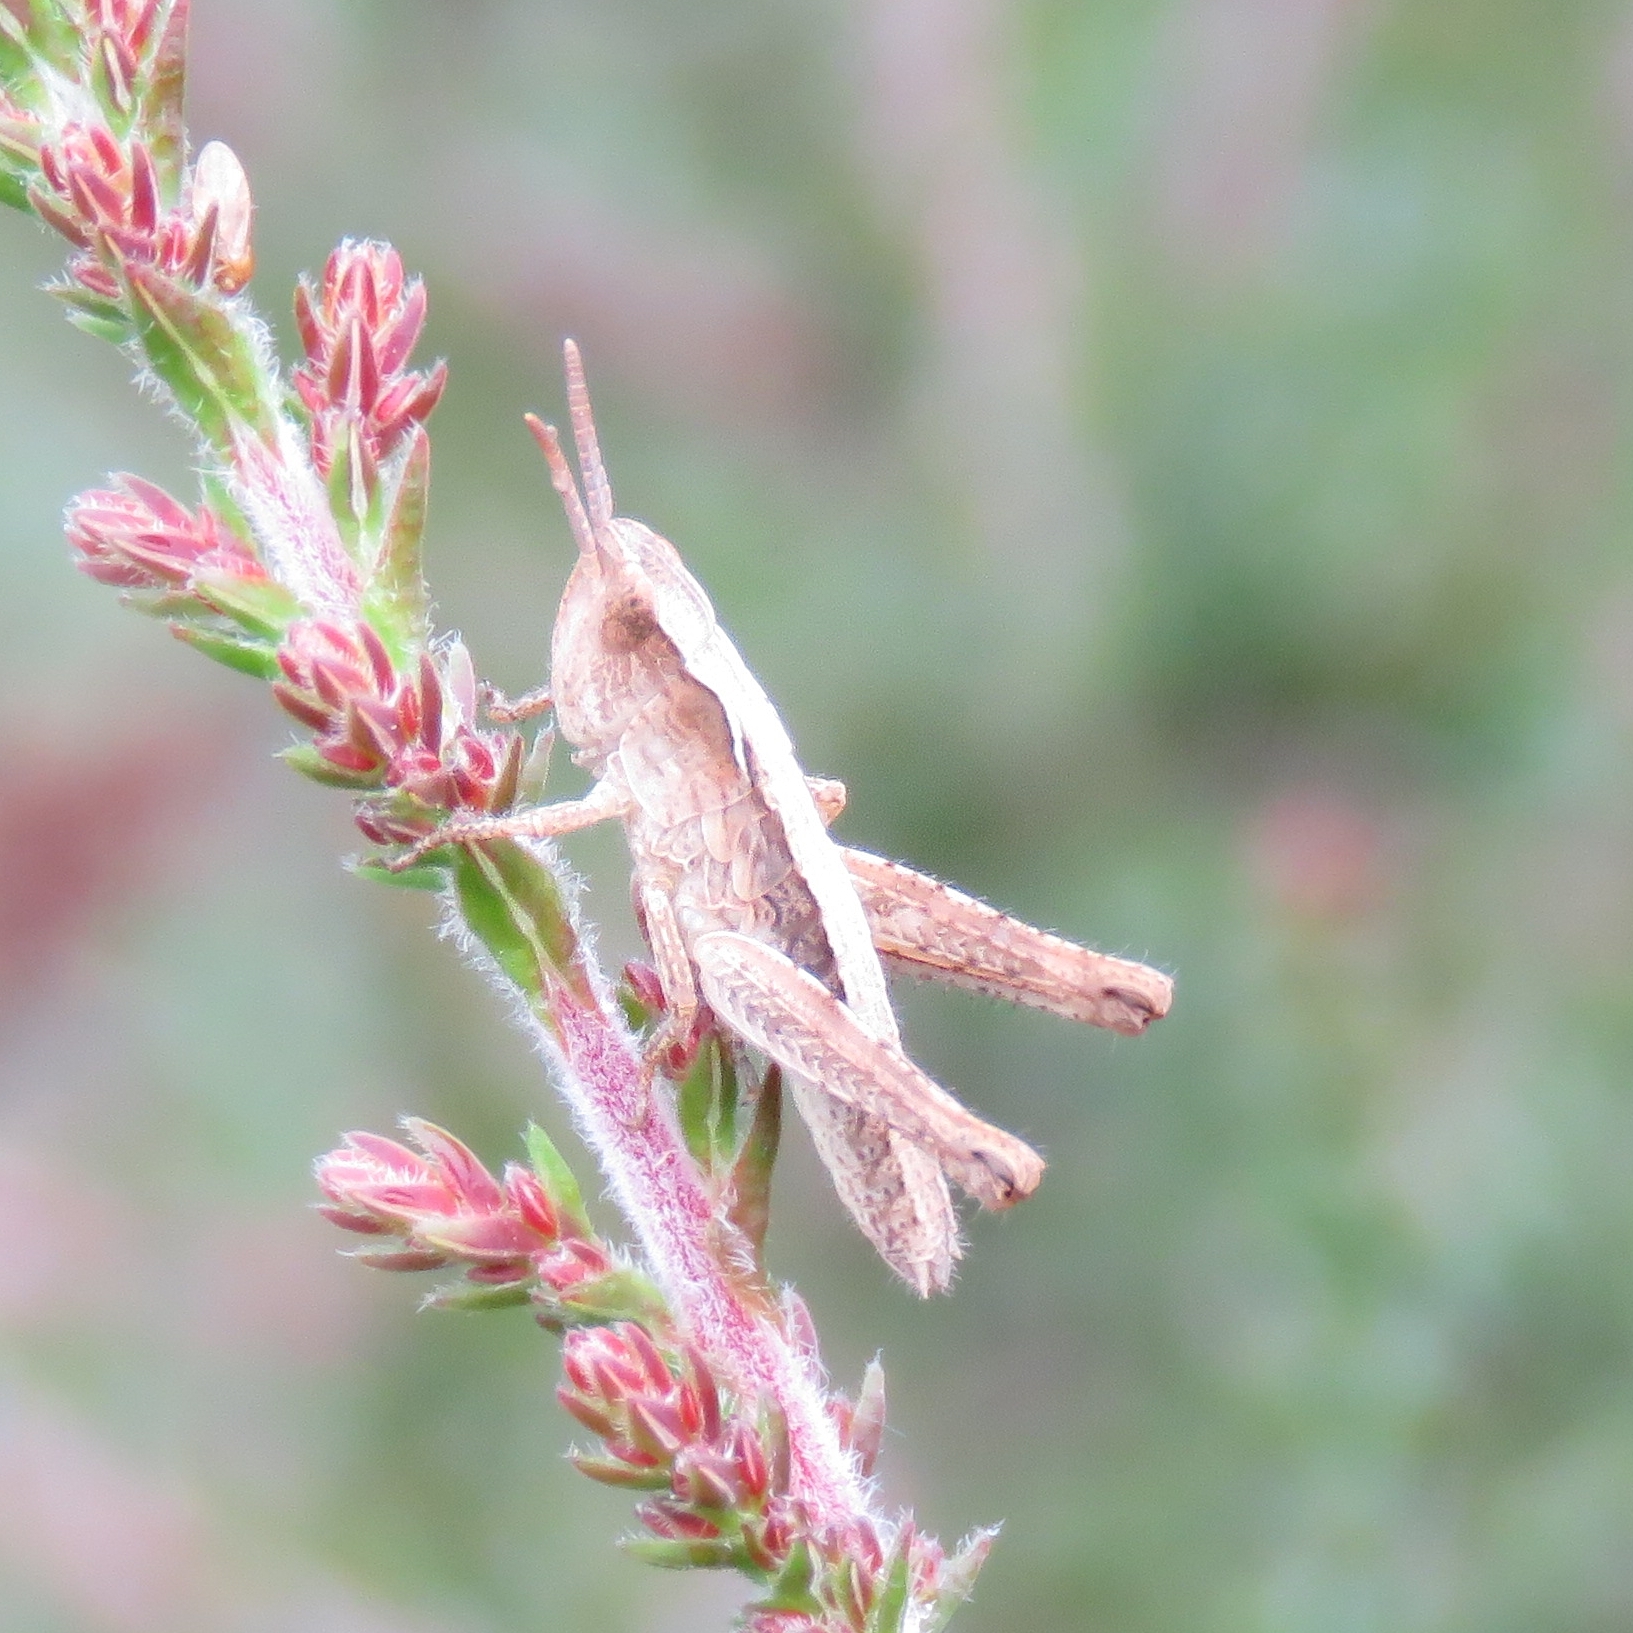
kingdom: Animalia
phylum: Arthropoda
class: Insecta
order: Orthoptera
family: Acrididae
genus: Chorthippus
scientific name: Chorthippus brunneus
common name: Field grasshopper
